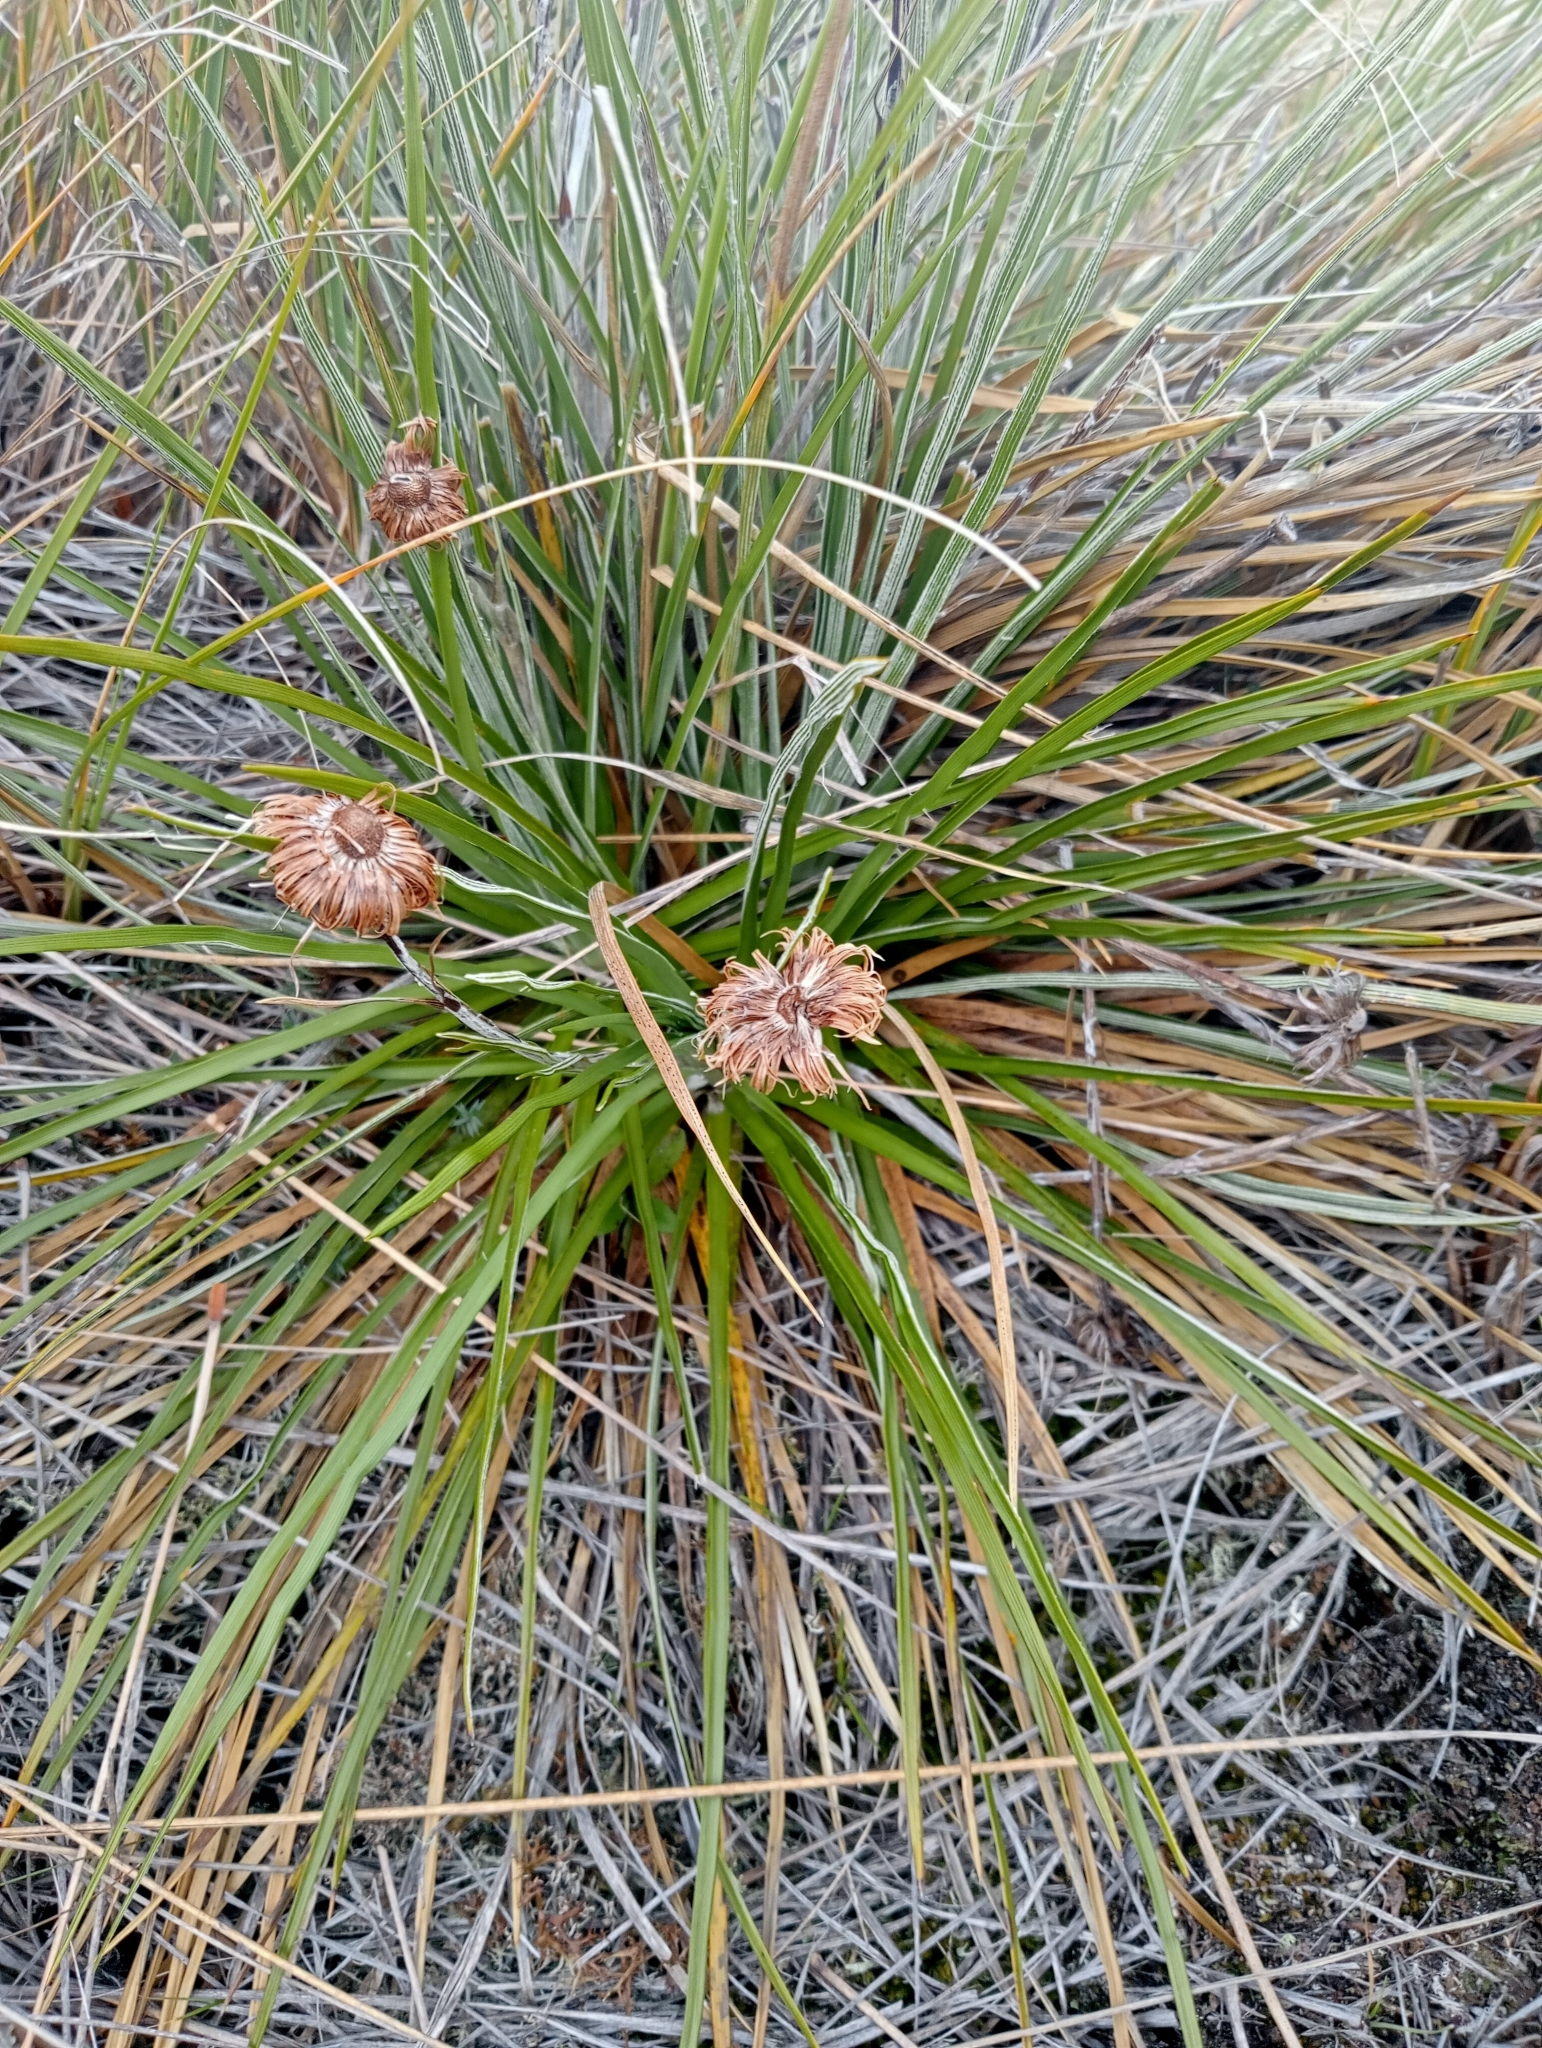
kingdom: Plantae
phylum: Tracheophyta
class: Magnoliopsida
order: Asterales
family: Asteraceae
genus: Celmisia
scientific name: Celmisia lyallii
